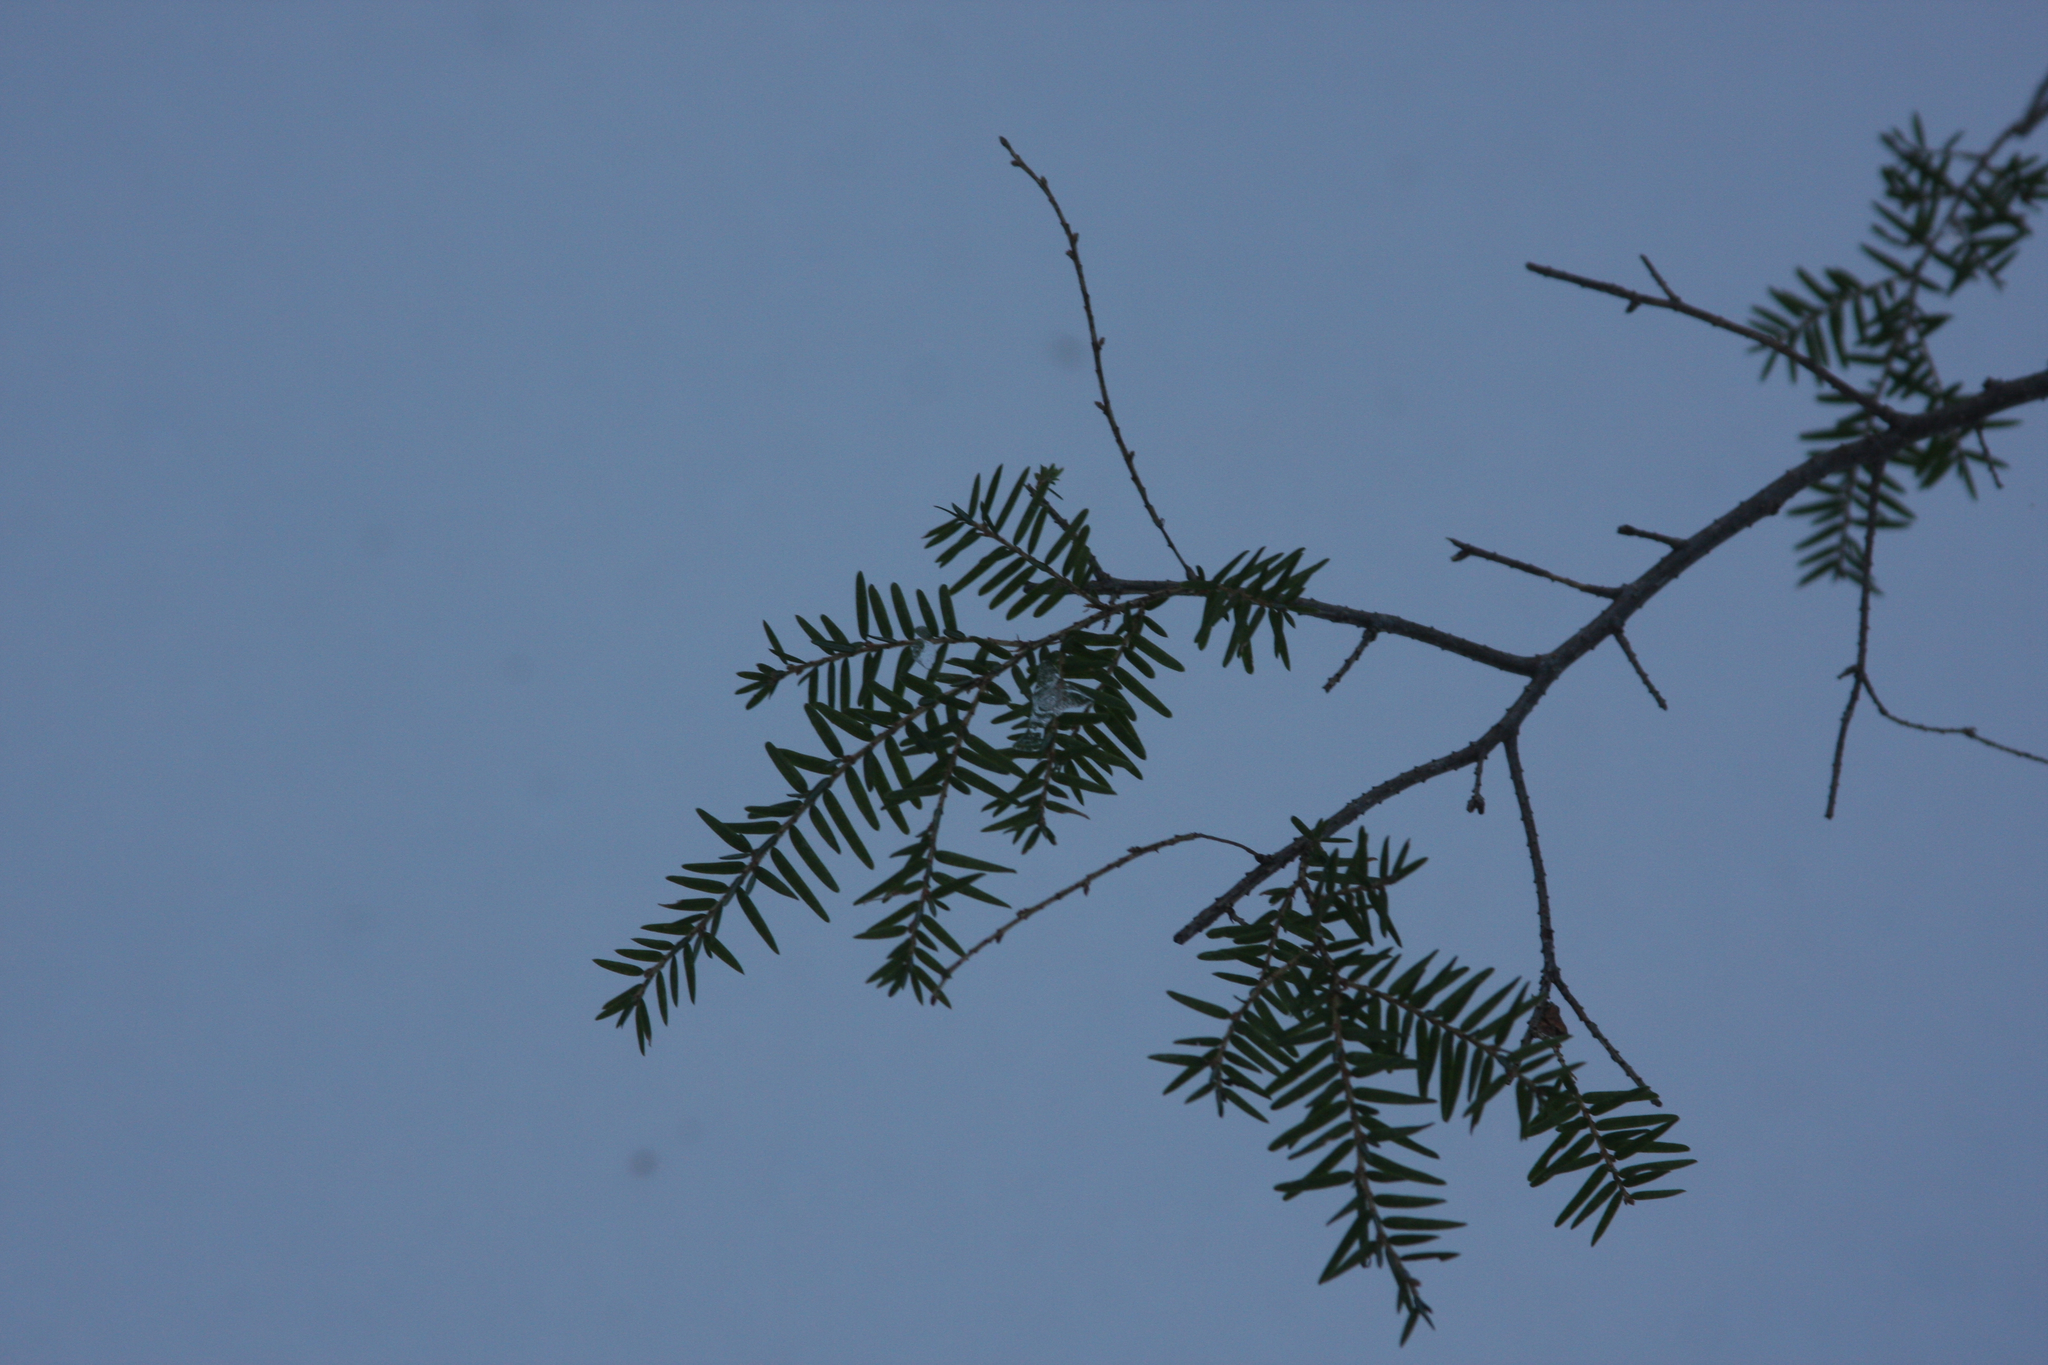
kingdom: Plantae
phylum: Tracheophyta
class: Pinopsida
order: Pinales
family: Pinaceae
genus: Tsuga
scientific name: Tsuga canadensis
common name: Eastern hemlock
